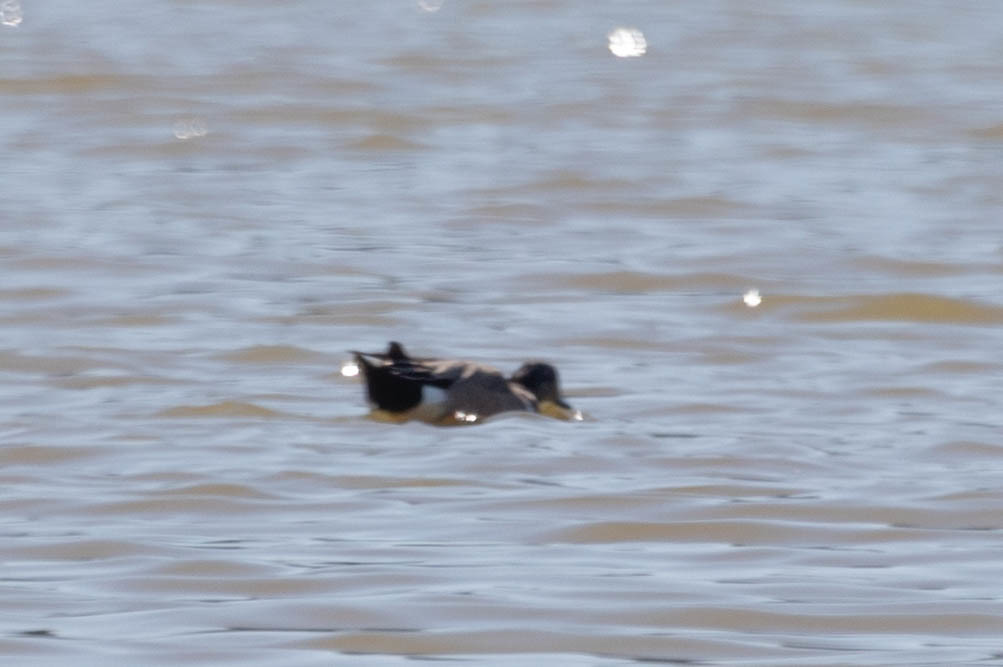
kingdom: Animalia
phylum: Chordata
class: Aves
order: Anseriformes
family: Anatidae
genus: Mareca
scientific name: Mareca americana
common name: American wigeon
